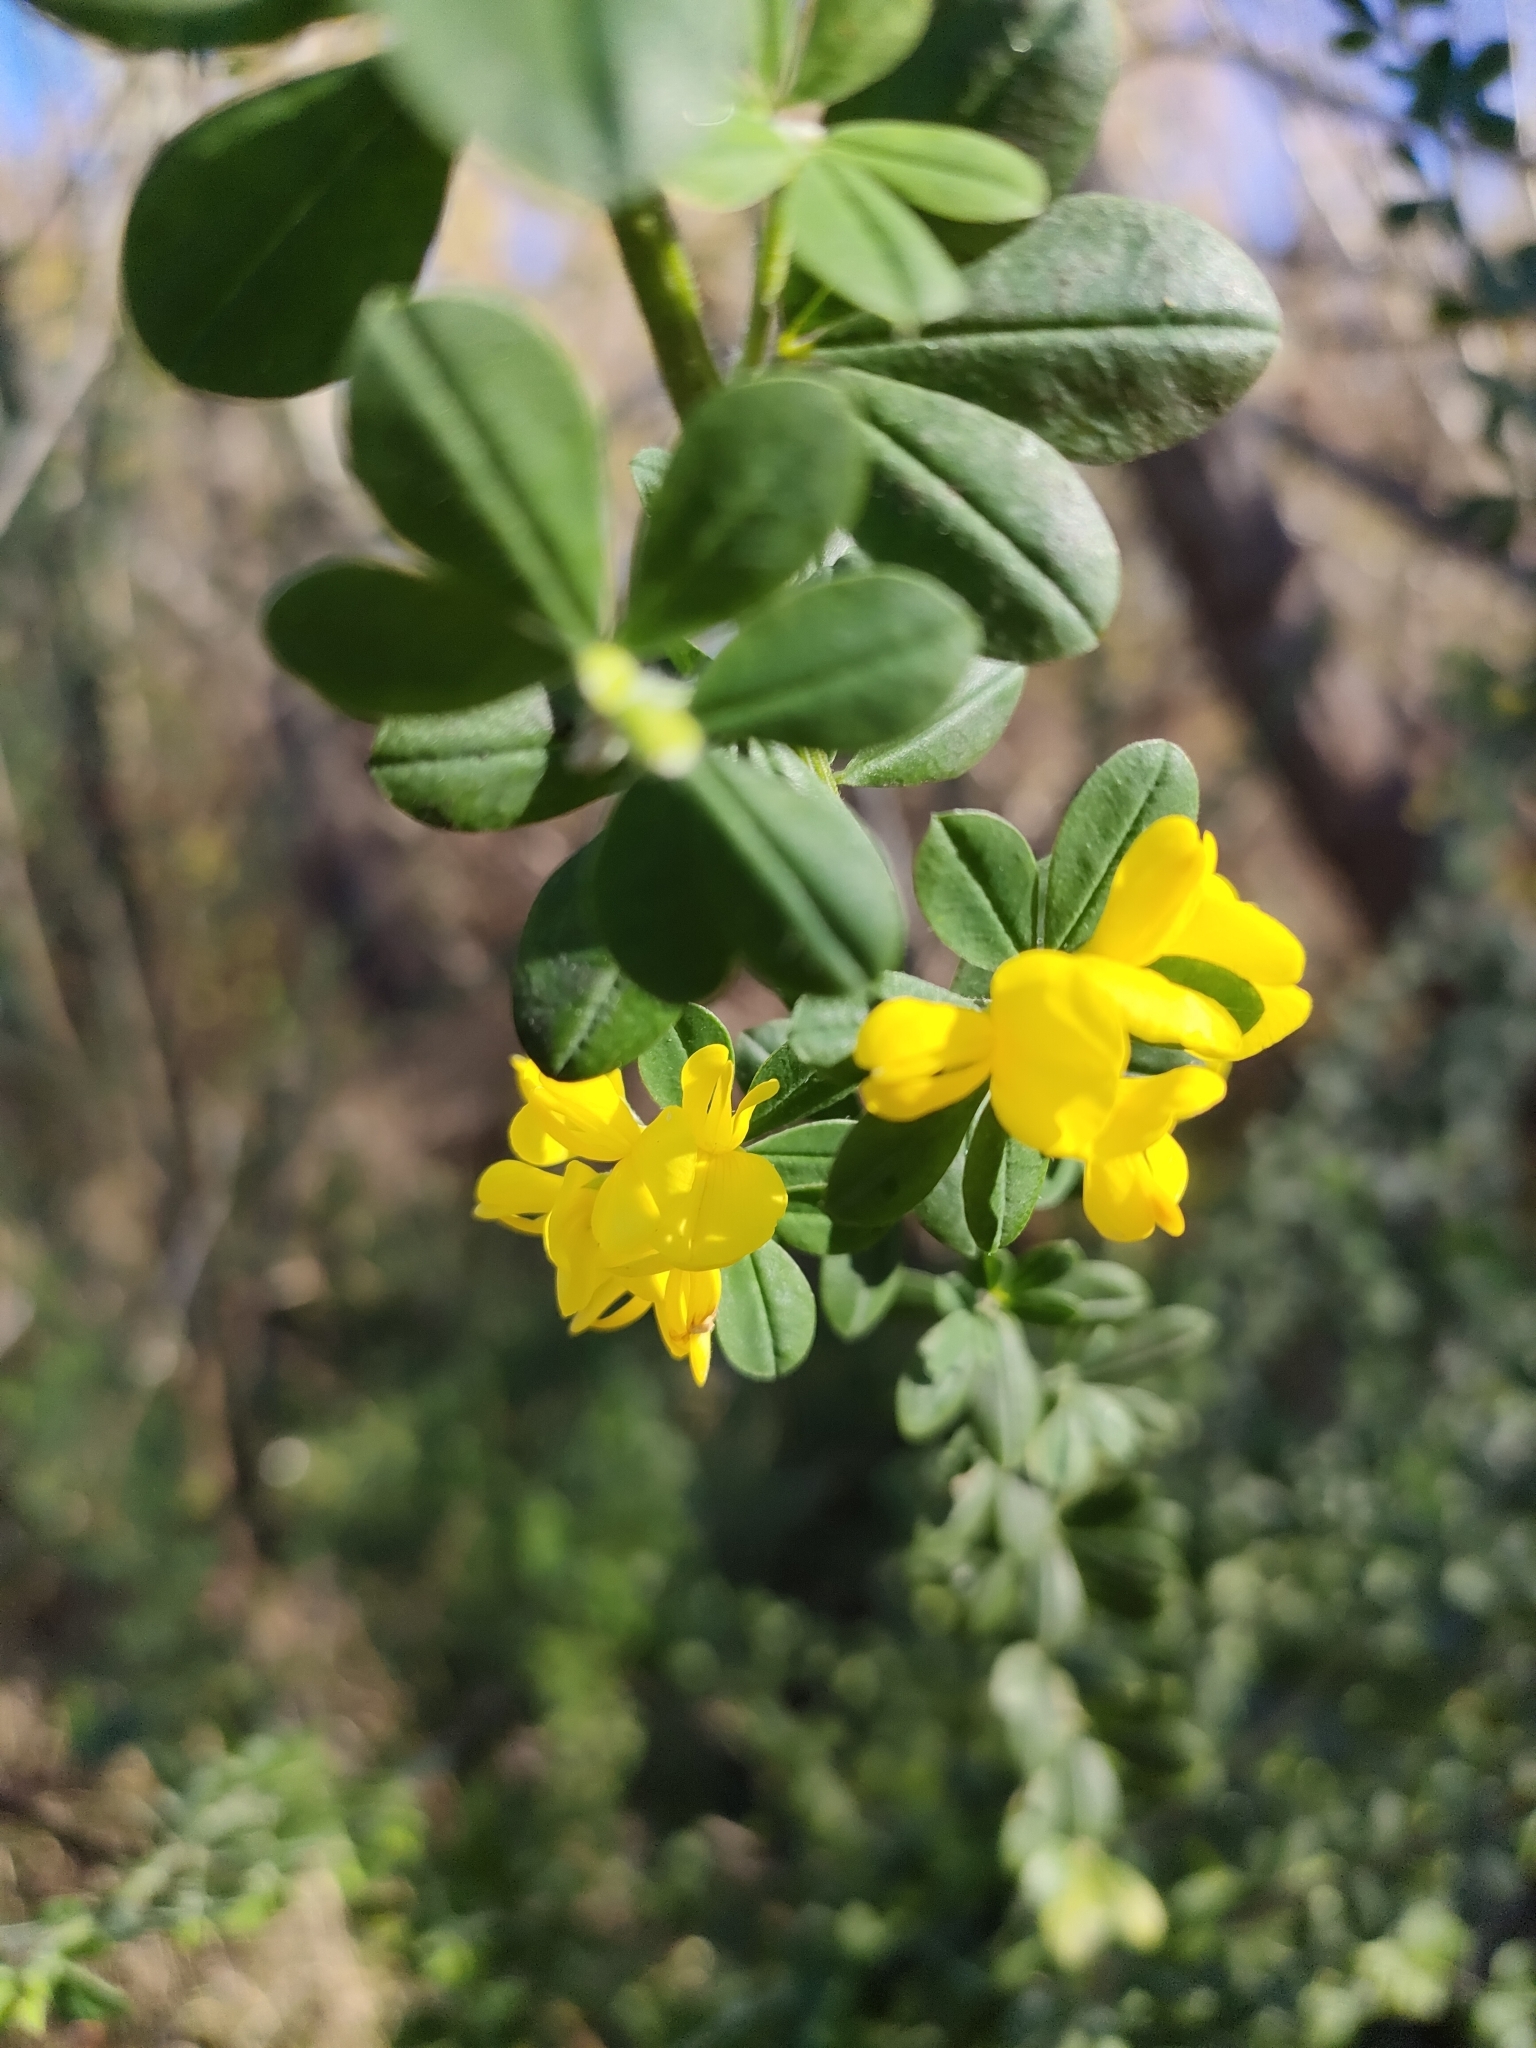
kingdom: Plantae
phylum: Tracheophyta
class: Magnoliopsida
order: Fabales
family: Fabaceae
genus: Genista
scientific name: Genista monspessulana
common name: Montpellier broom
